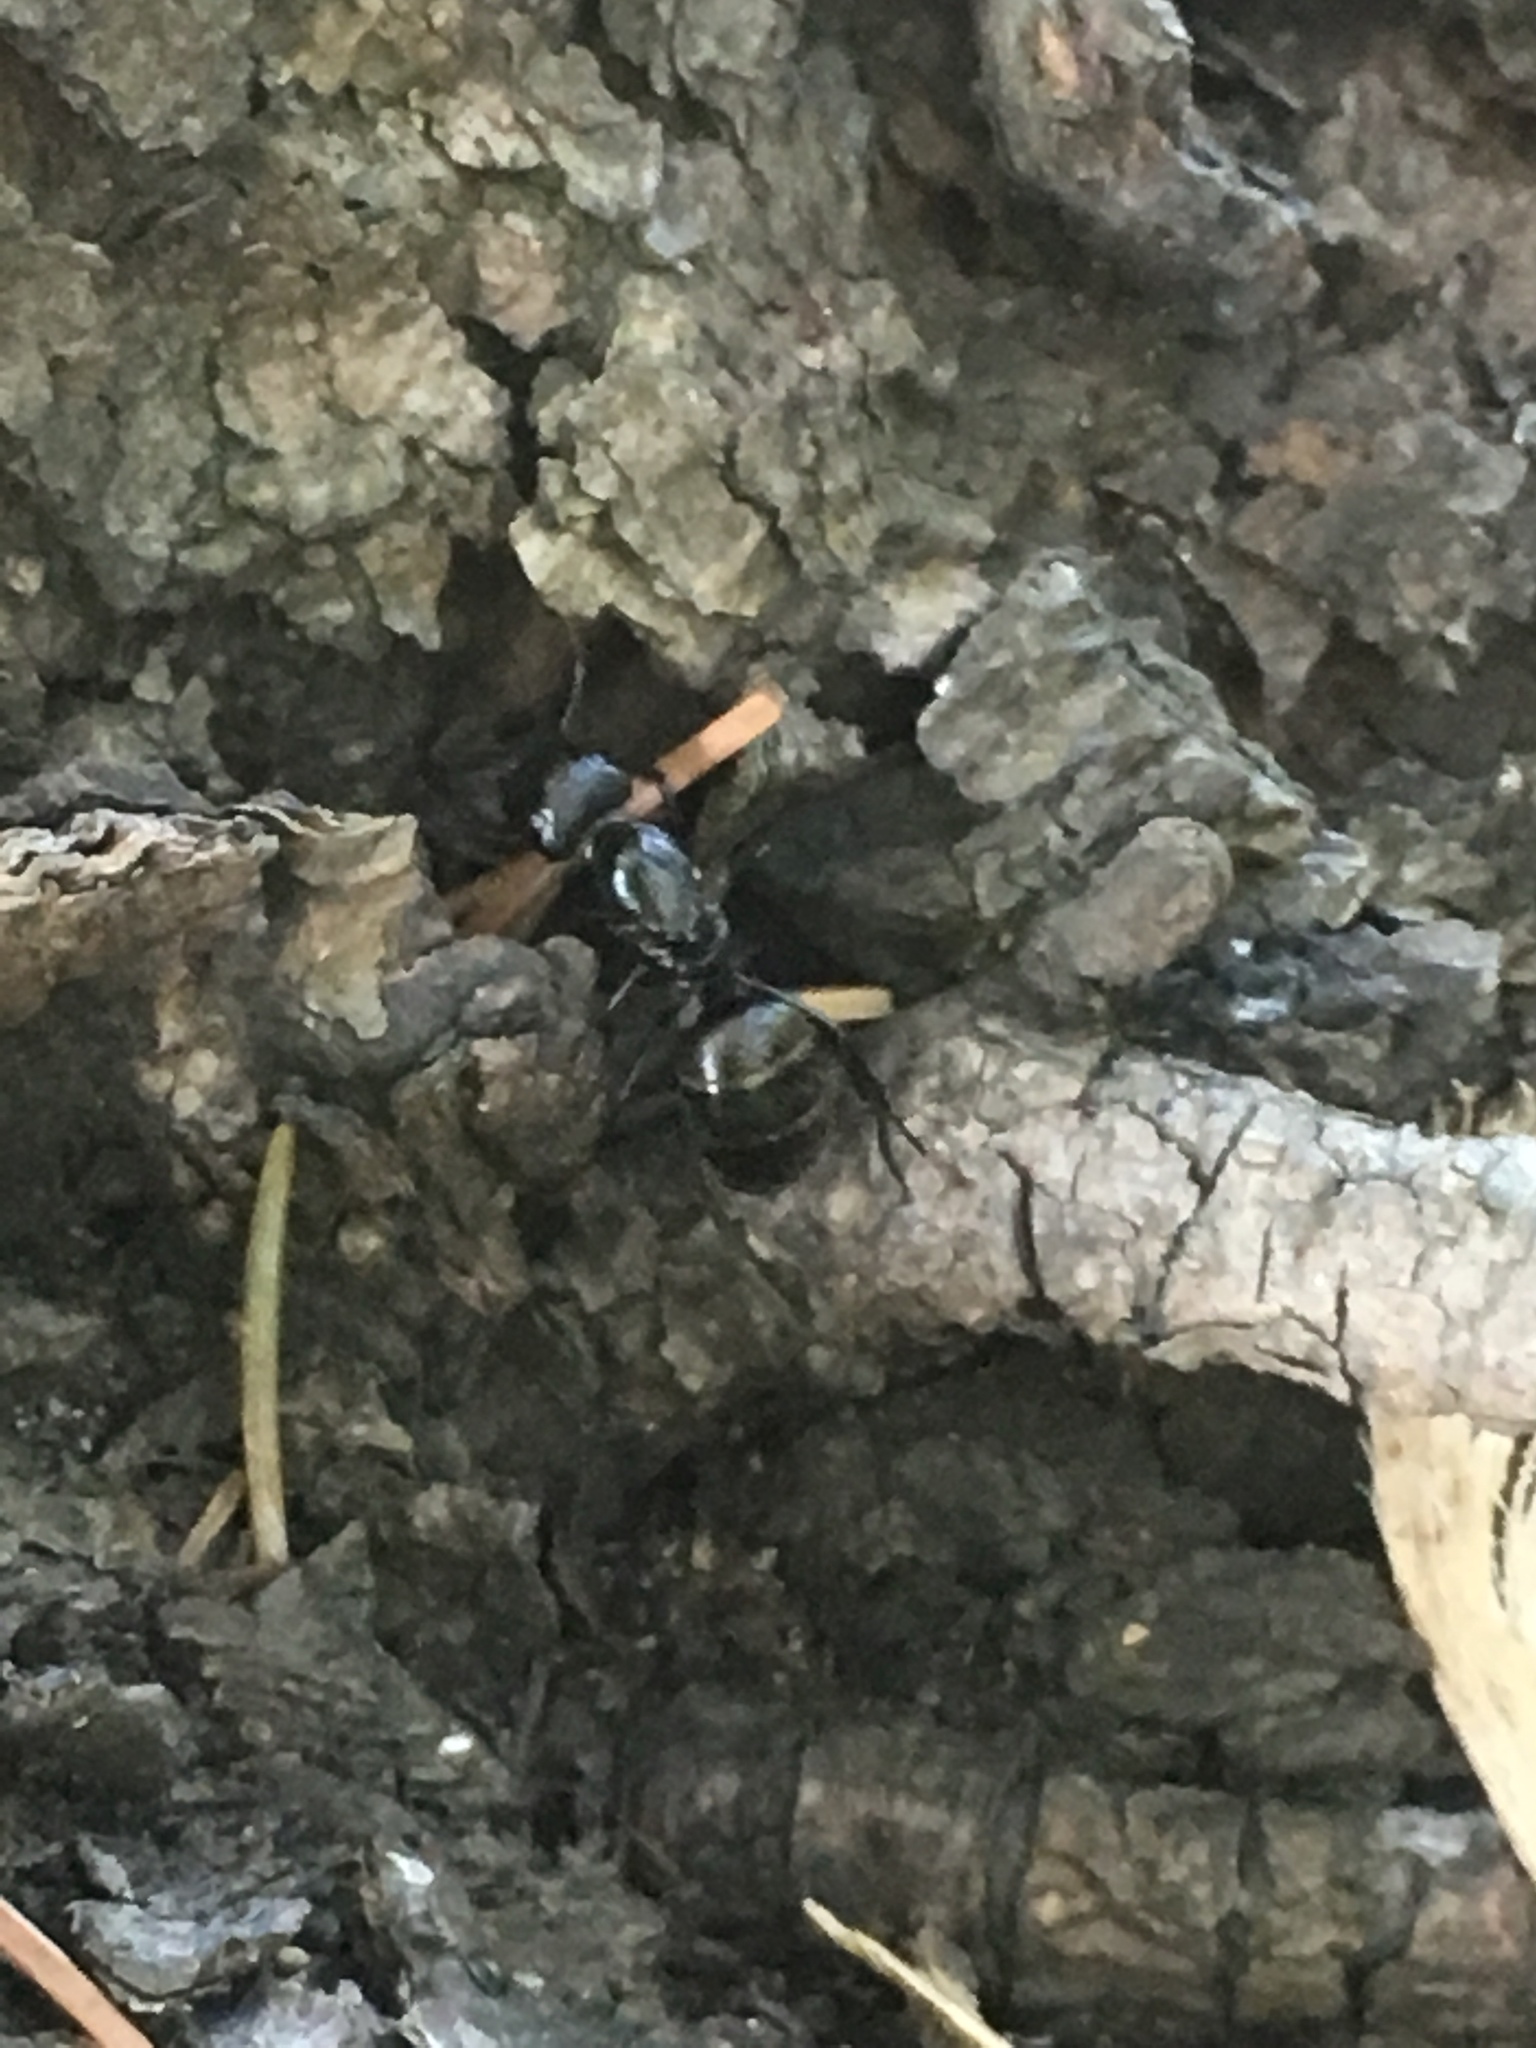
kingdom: Animalia
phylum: Arthropoda
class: Insecta
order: Hymenoptera
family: Formicidae
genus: Camponotus
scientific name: Camponotus pennsylvanicus
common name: Black carpenter ant
